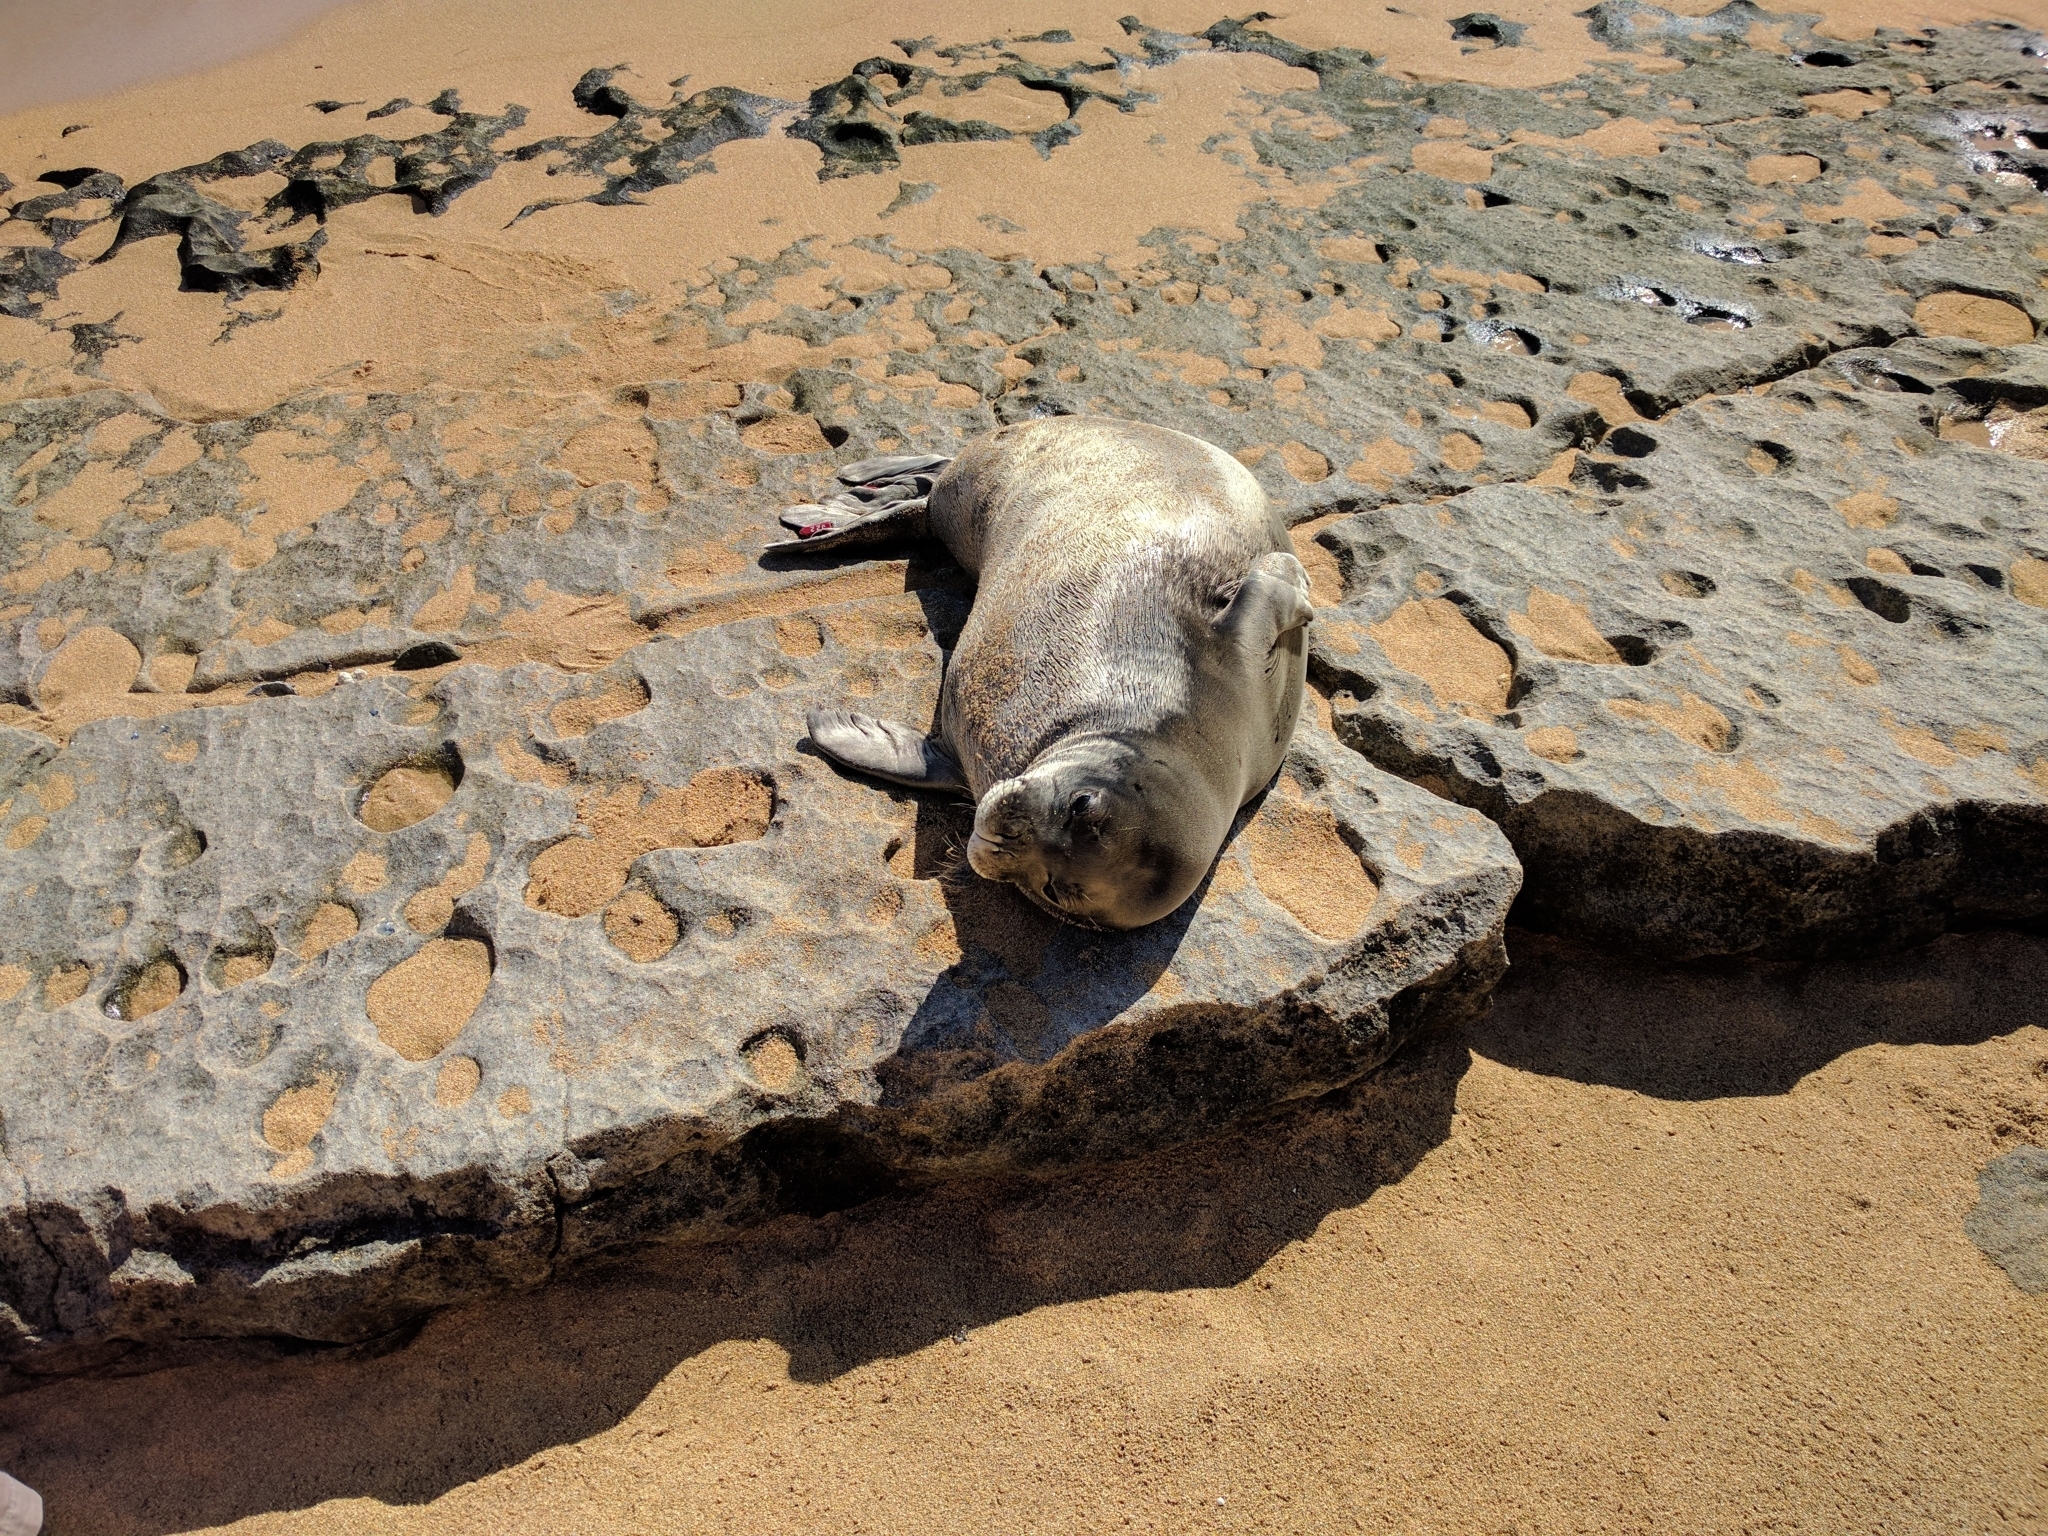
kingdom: Animalia
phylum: Chordata
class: Mammalia
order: Carnivora
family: Phocidae
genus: Neomonachus
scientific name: Neomonachus schauinslandi
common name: Hawaiian monk seal
